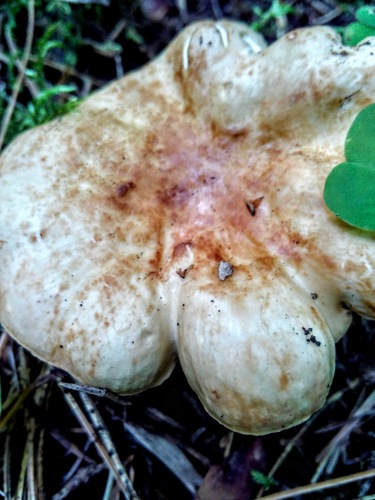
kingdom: Fungi
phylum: Basidiomycota
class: Agaricomycetes
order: Russulales
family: Russulaceae
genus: Russula
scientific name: Russula
